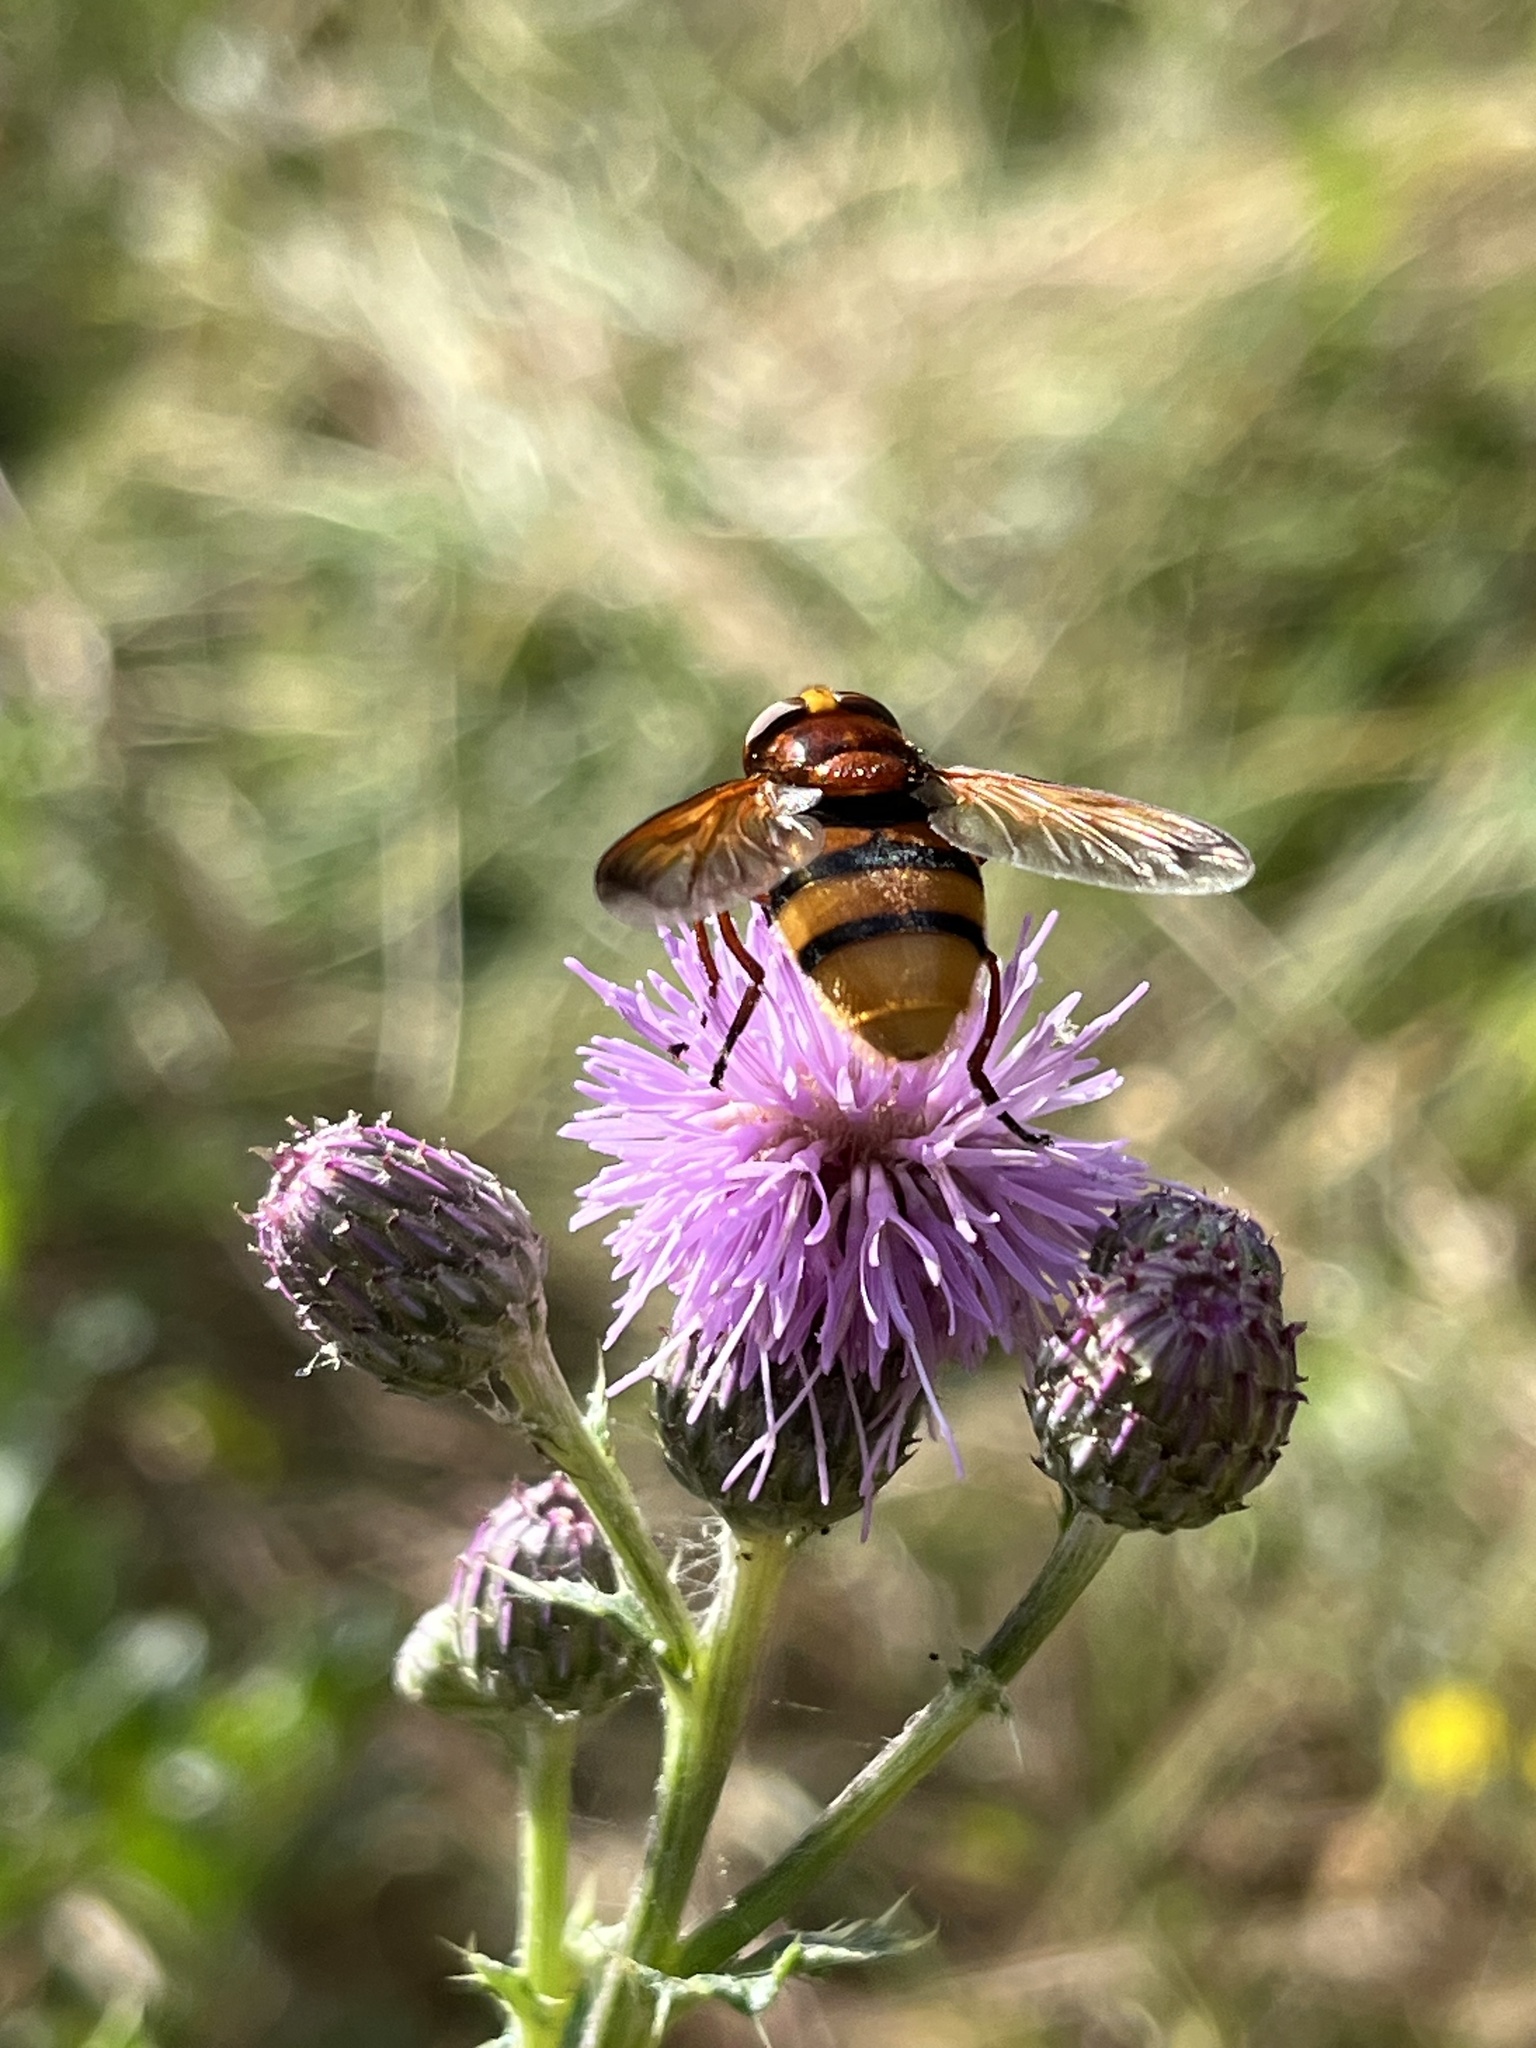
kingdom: Animalia
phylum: Arthropoda
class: Insecta
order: Diptera
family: Syrphidae
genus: Volucella
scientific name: Volucella zonaria
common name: Hornet hoverfly
